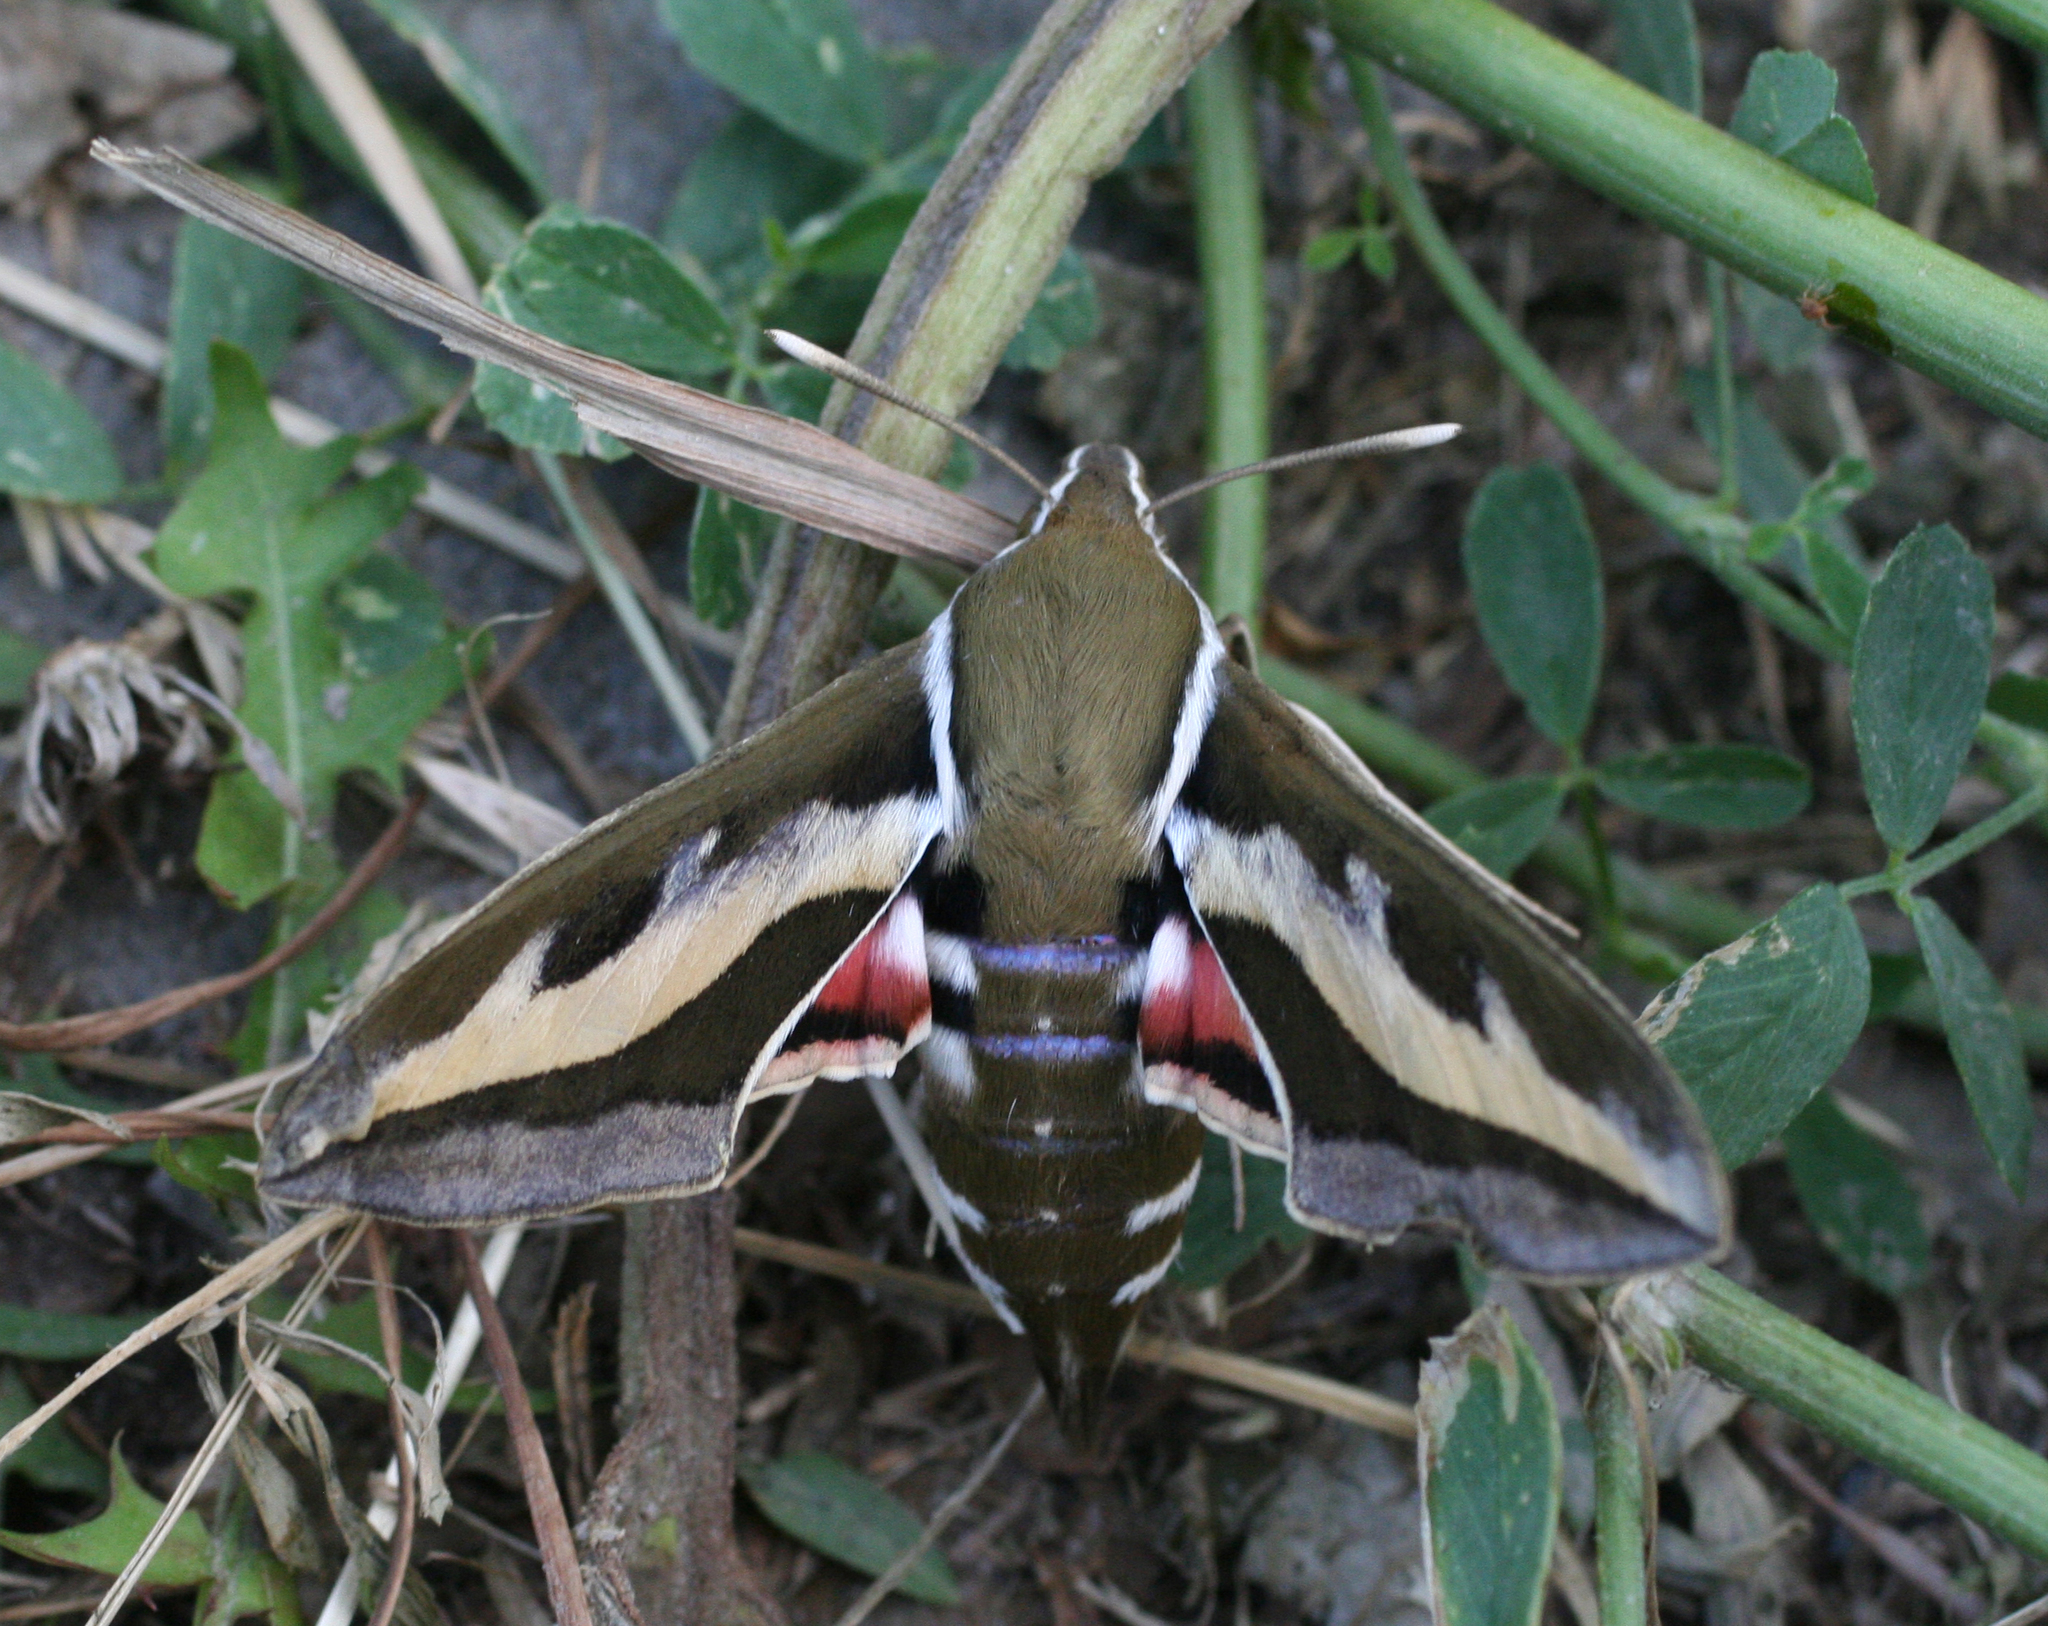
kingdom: Animalia
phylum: Arthropoda
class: Insecta
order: Lepidoptera
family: Sphingidae
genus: Hyles
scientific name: Hyles gallii
